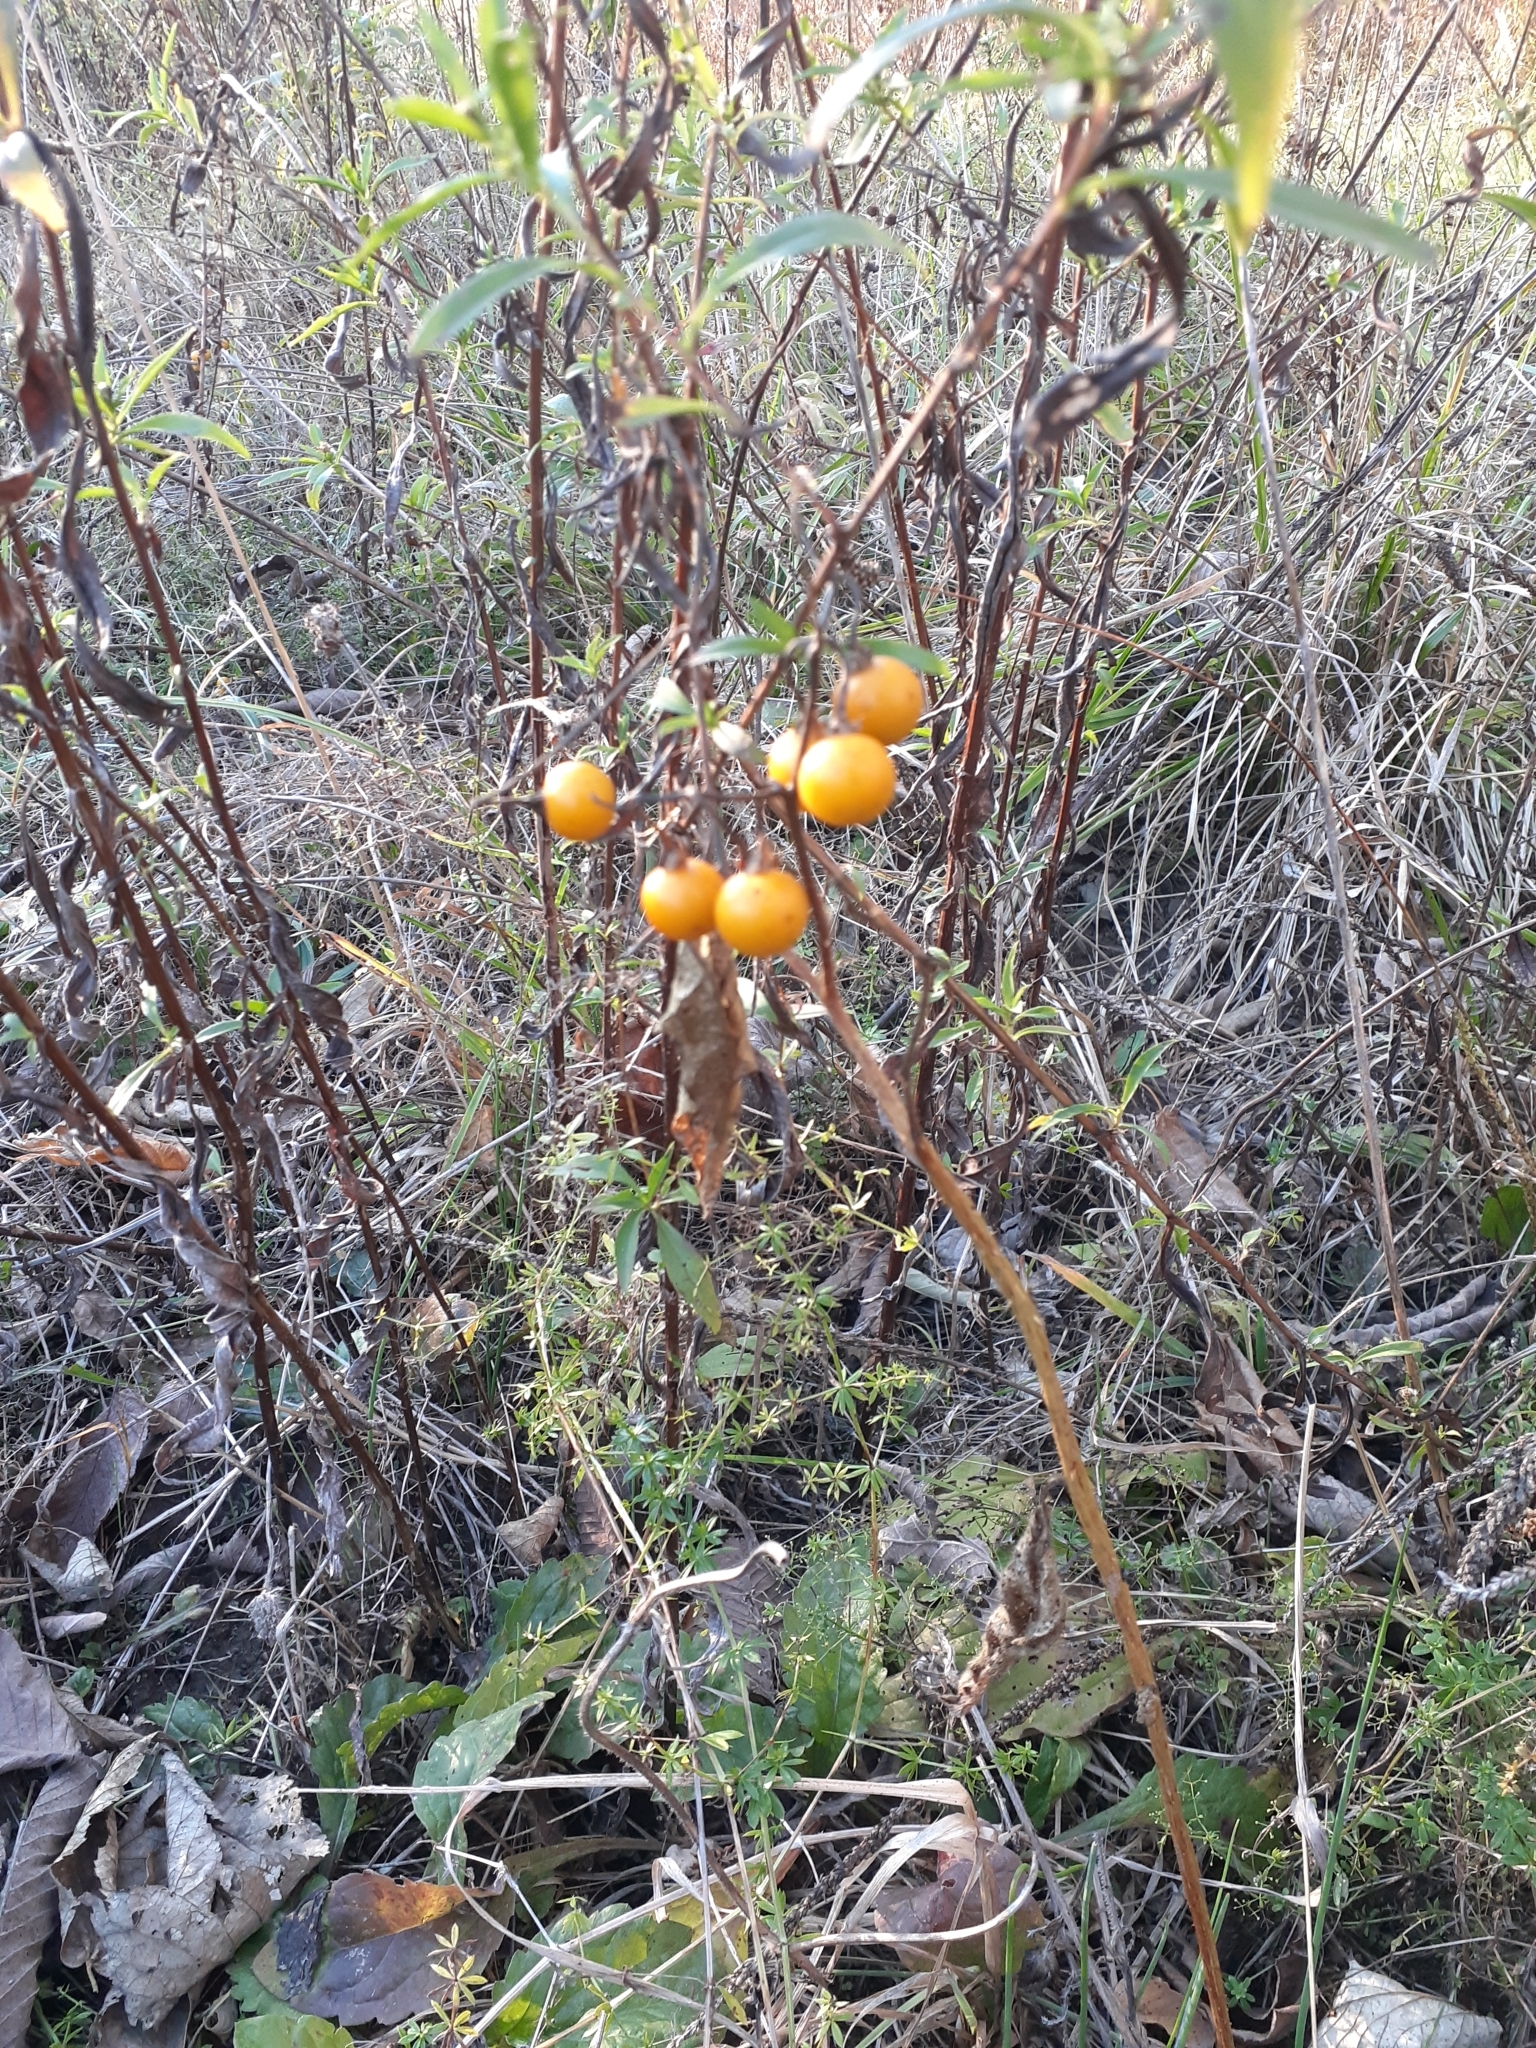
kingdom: Plantae
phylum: Tracheophyta
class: Magnoliopsida
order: Solanales
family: Solanaceae
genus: Solanum
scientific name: Solanum carolinense
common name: Horse-nettle
